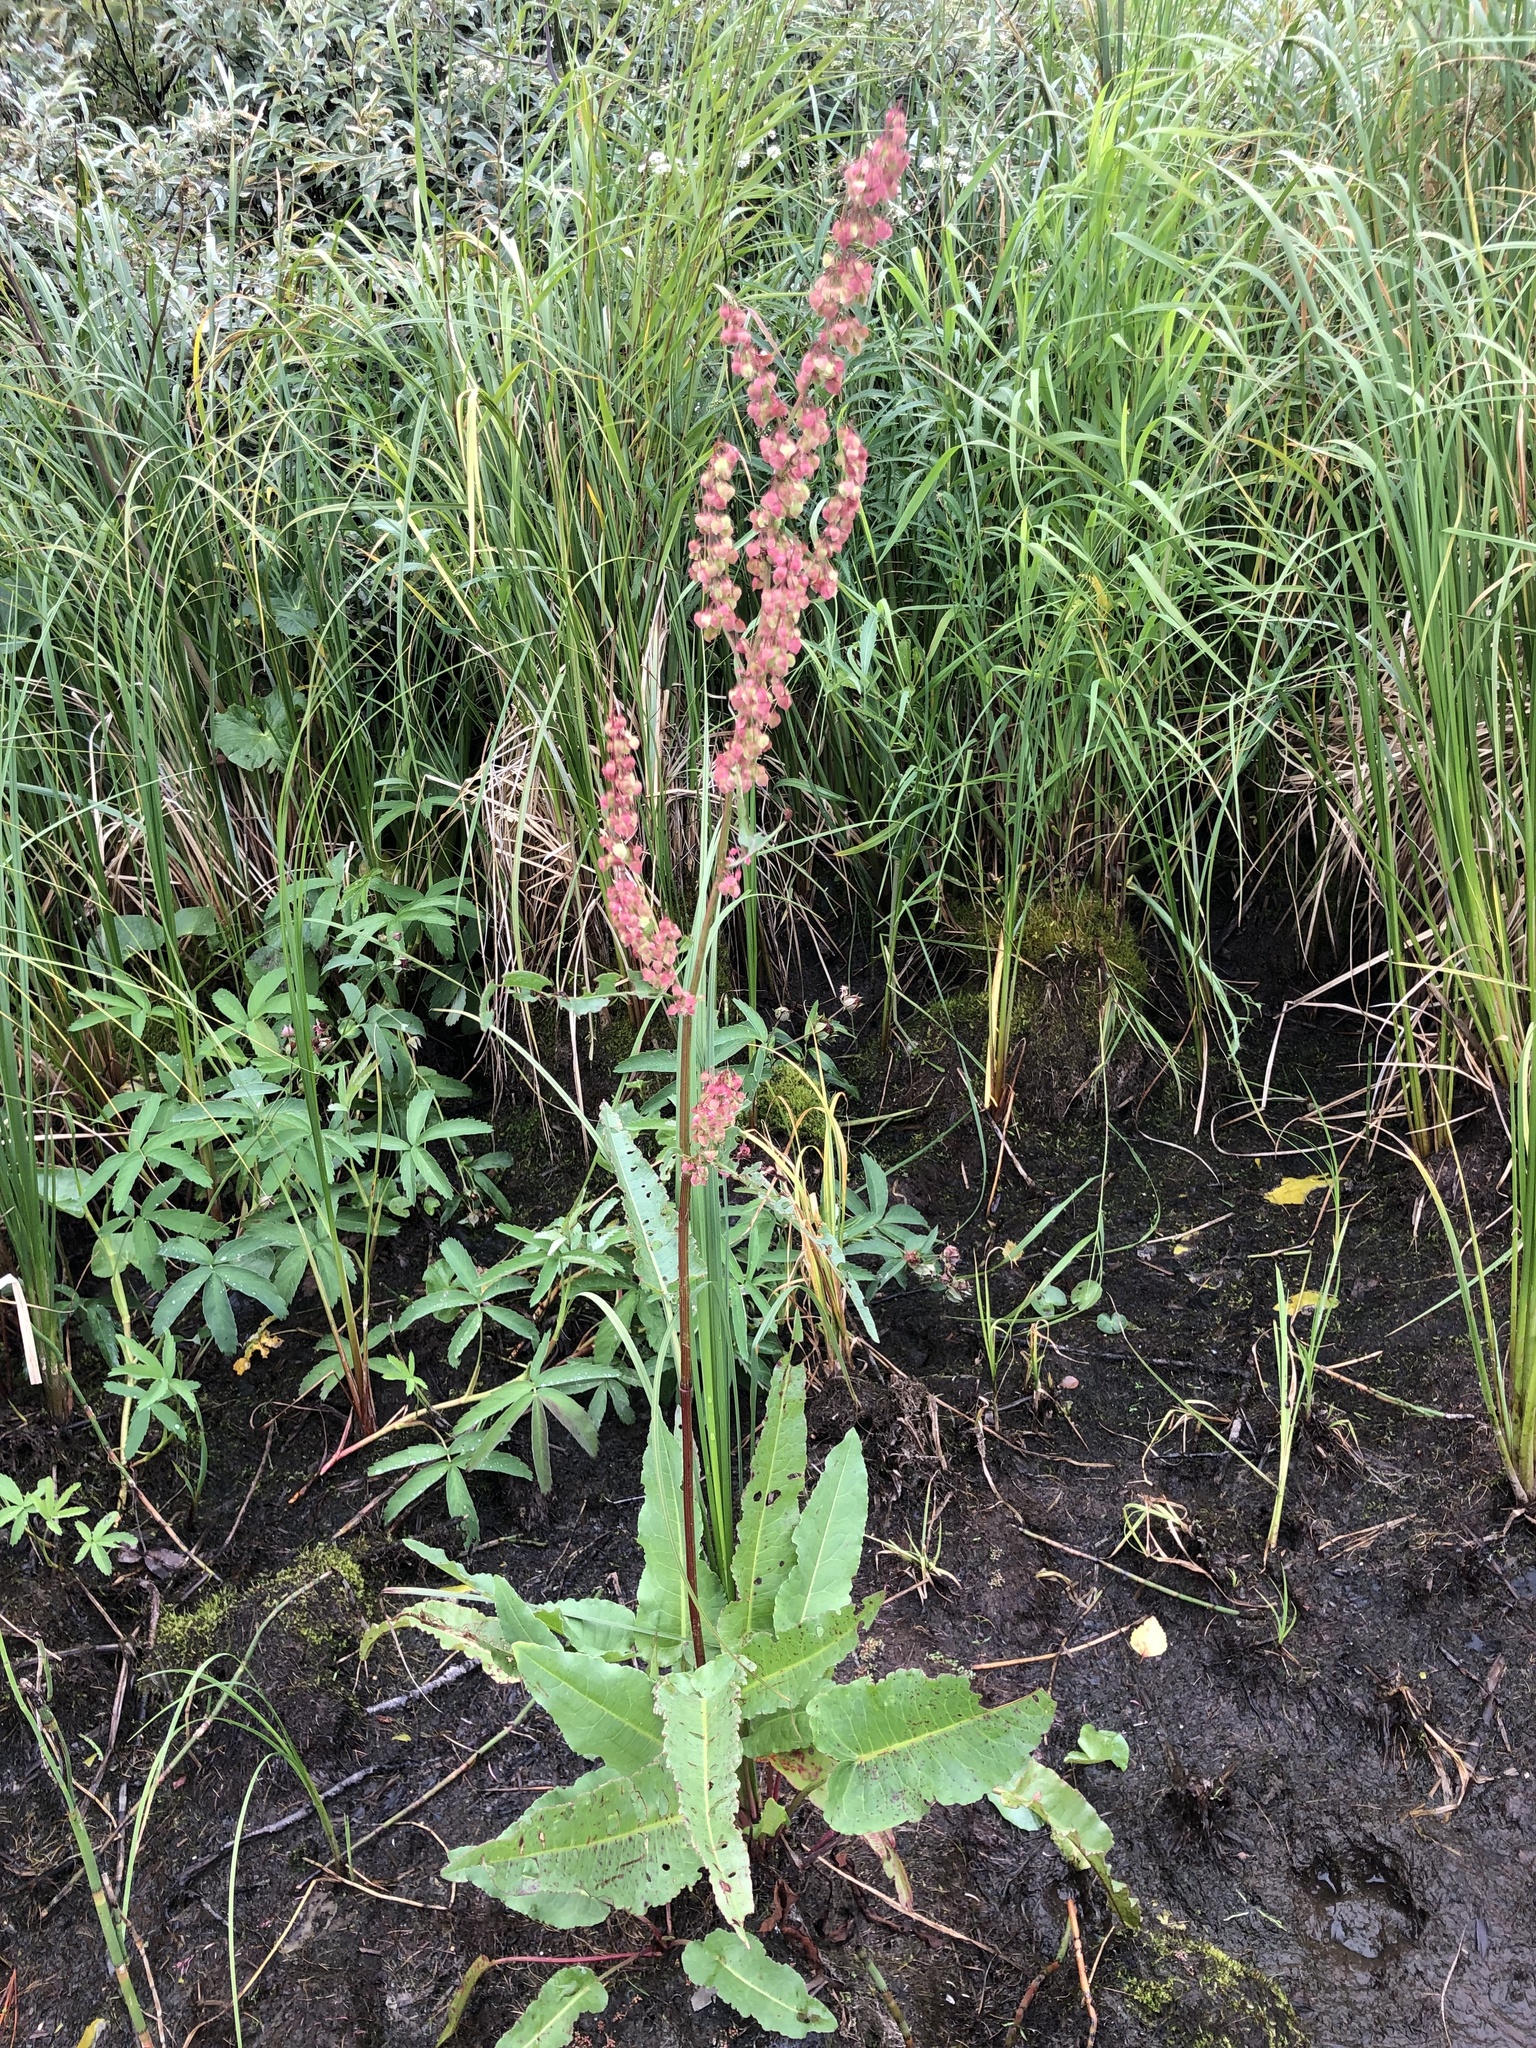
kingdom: Plantae
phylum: Tracheophyta
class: Magnoliopsida
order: Caryophyllales
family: Polygonaceae
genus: Rumex
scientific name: Rumex aquaticus
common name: Scottish dock
